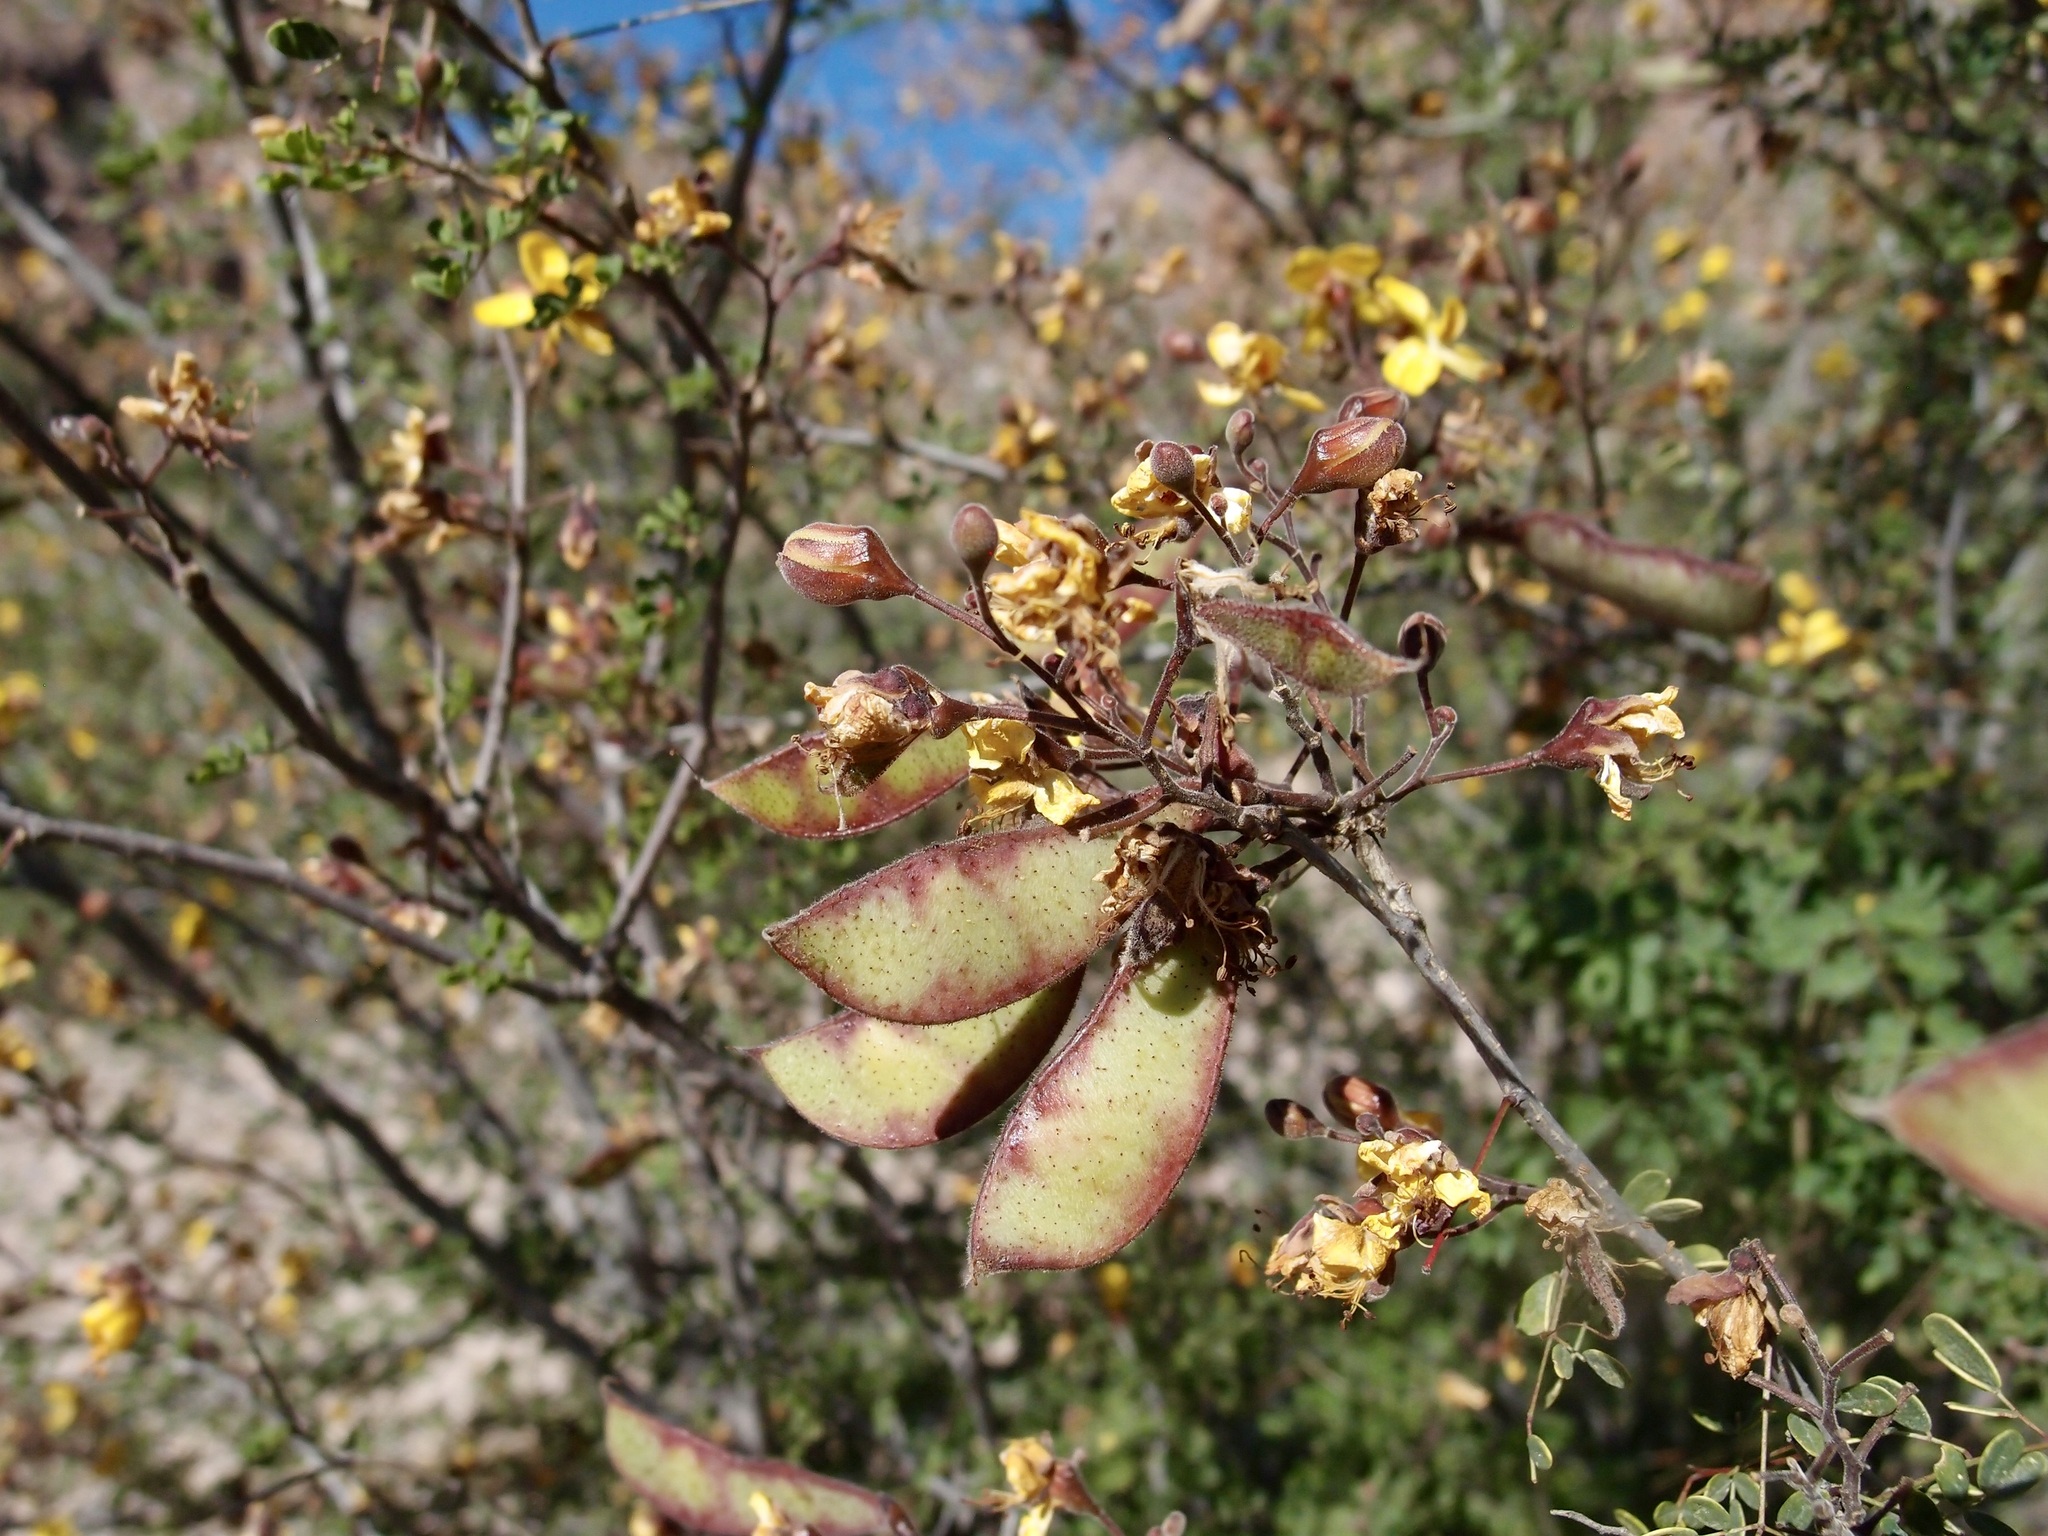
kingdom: Plantae
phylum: Tracheophyta
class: Magnoliopsida
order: Fabales
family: Fabaceae
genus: Erythrostemon
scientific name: Erythrostemon palmeri
